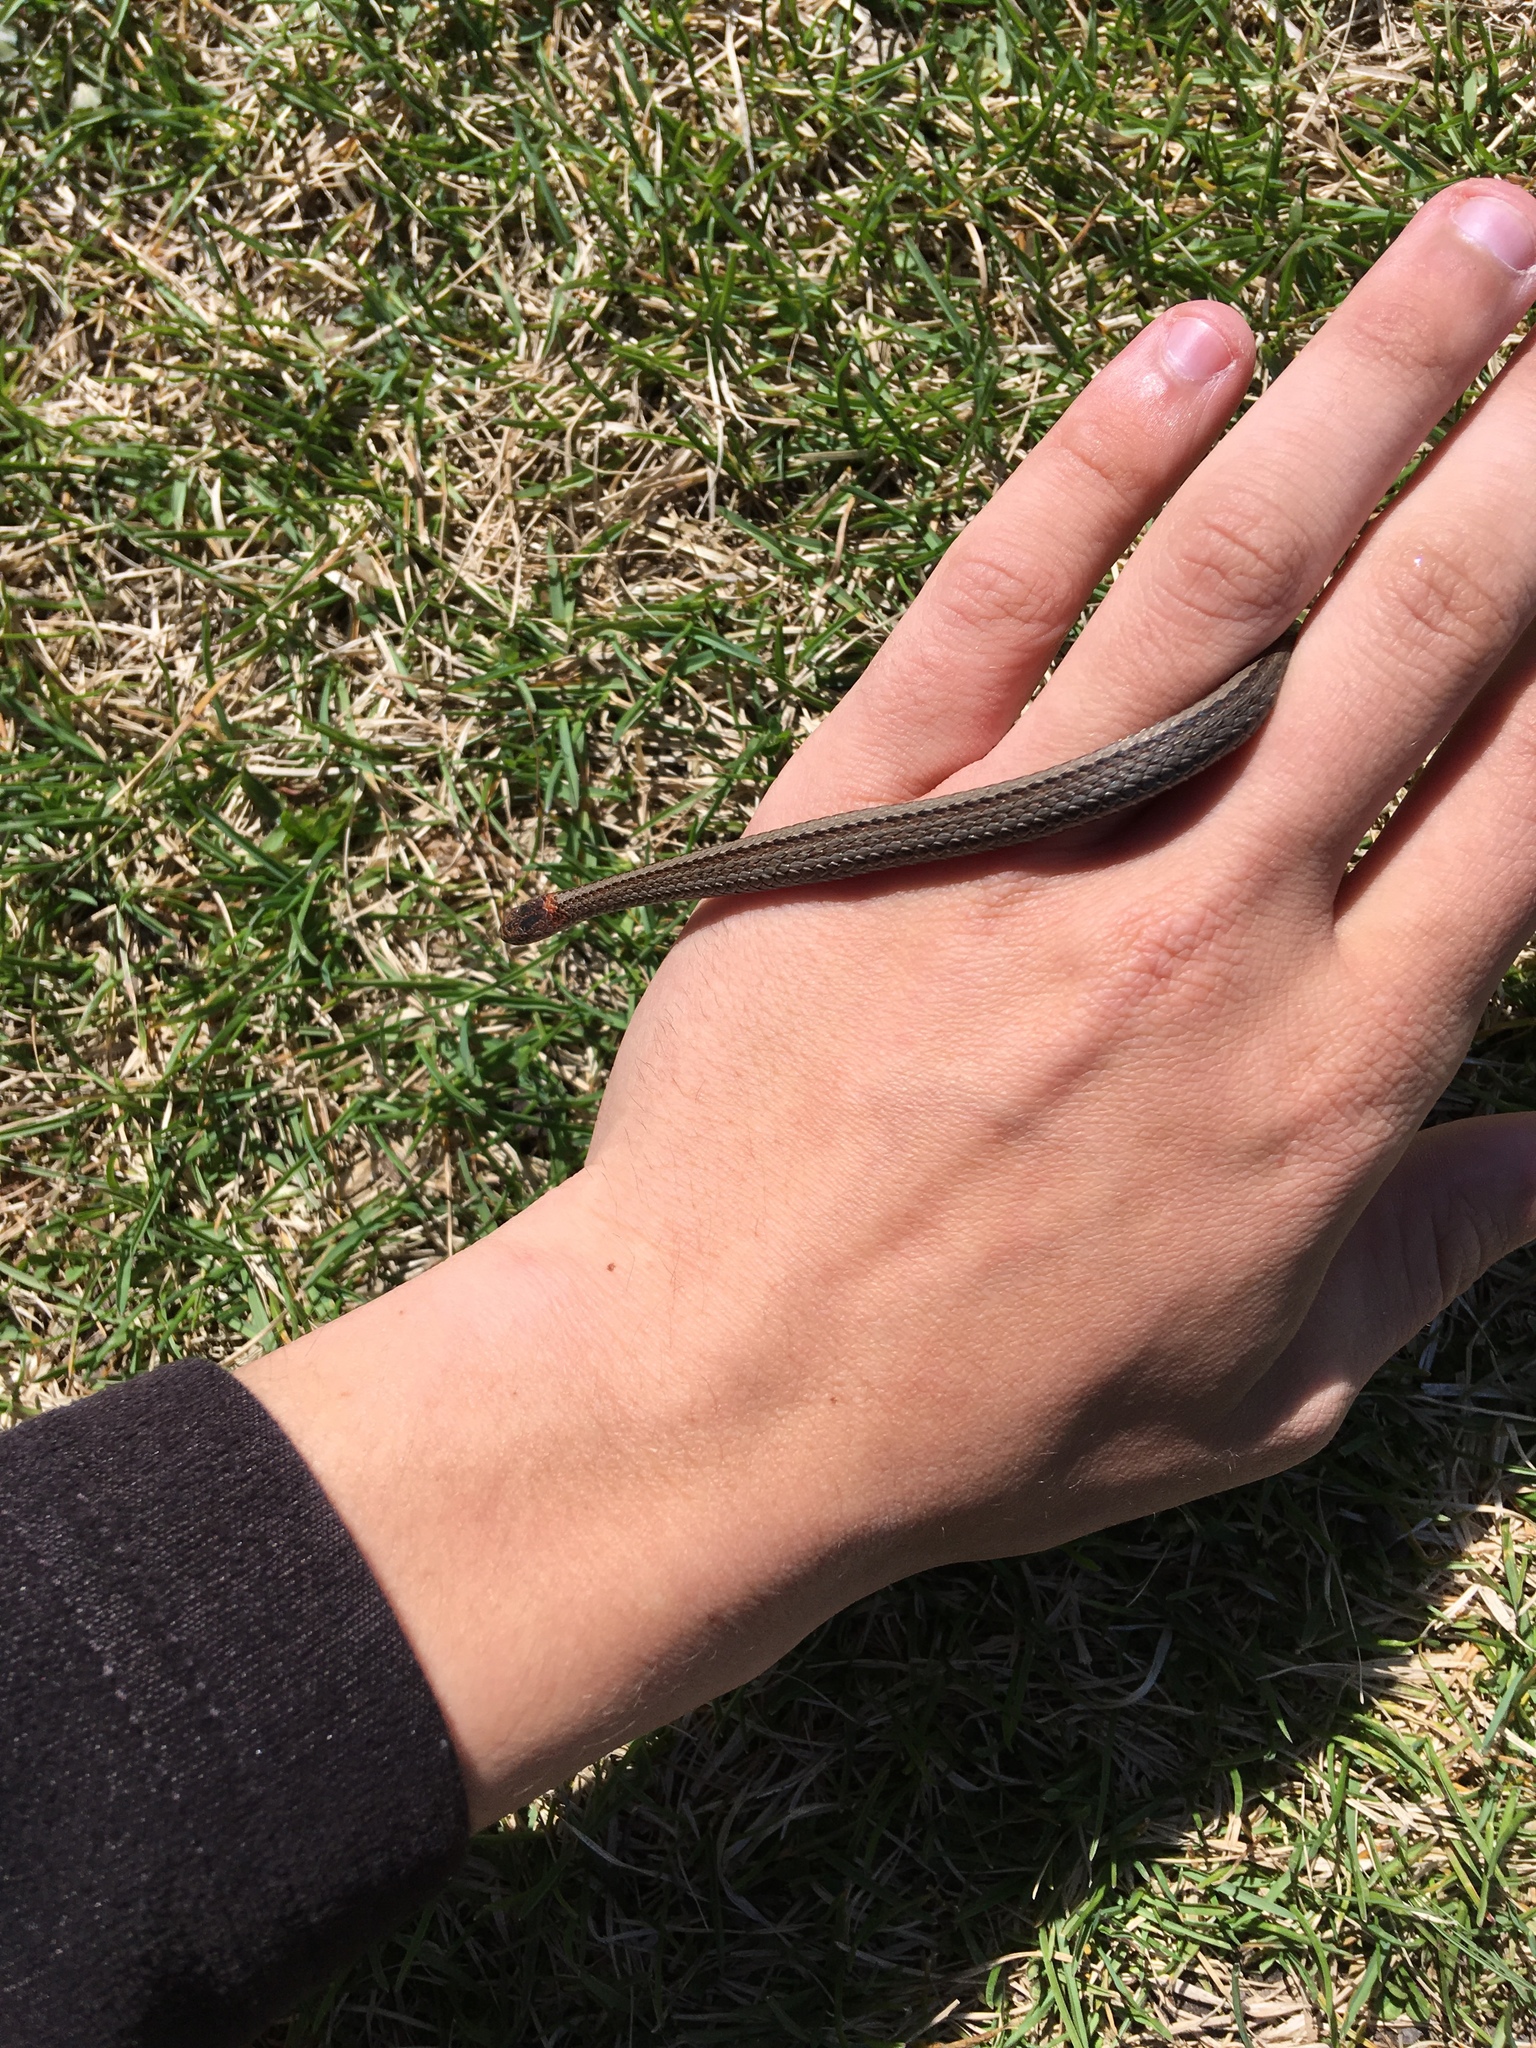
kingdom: Animalia
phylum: Chordata
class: Squamata
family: Colubridae
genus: Storeria
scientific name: Storeria occipitomaculata
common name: Redbelly snake
